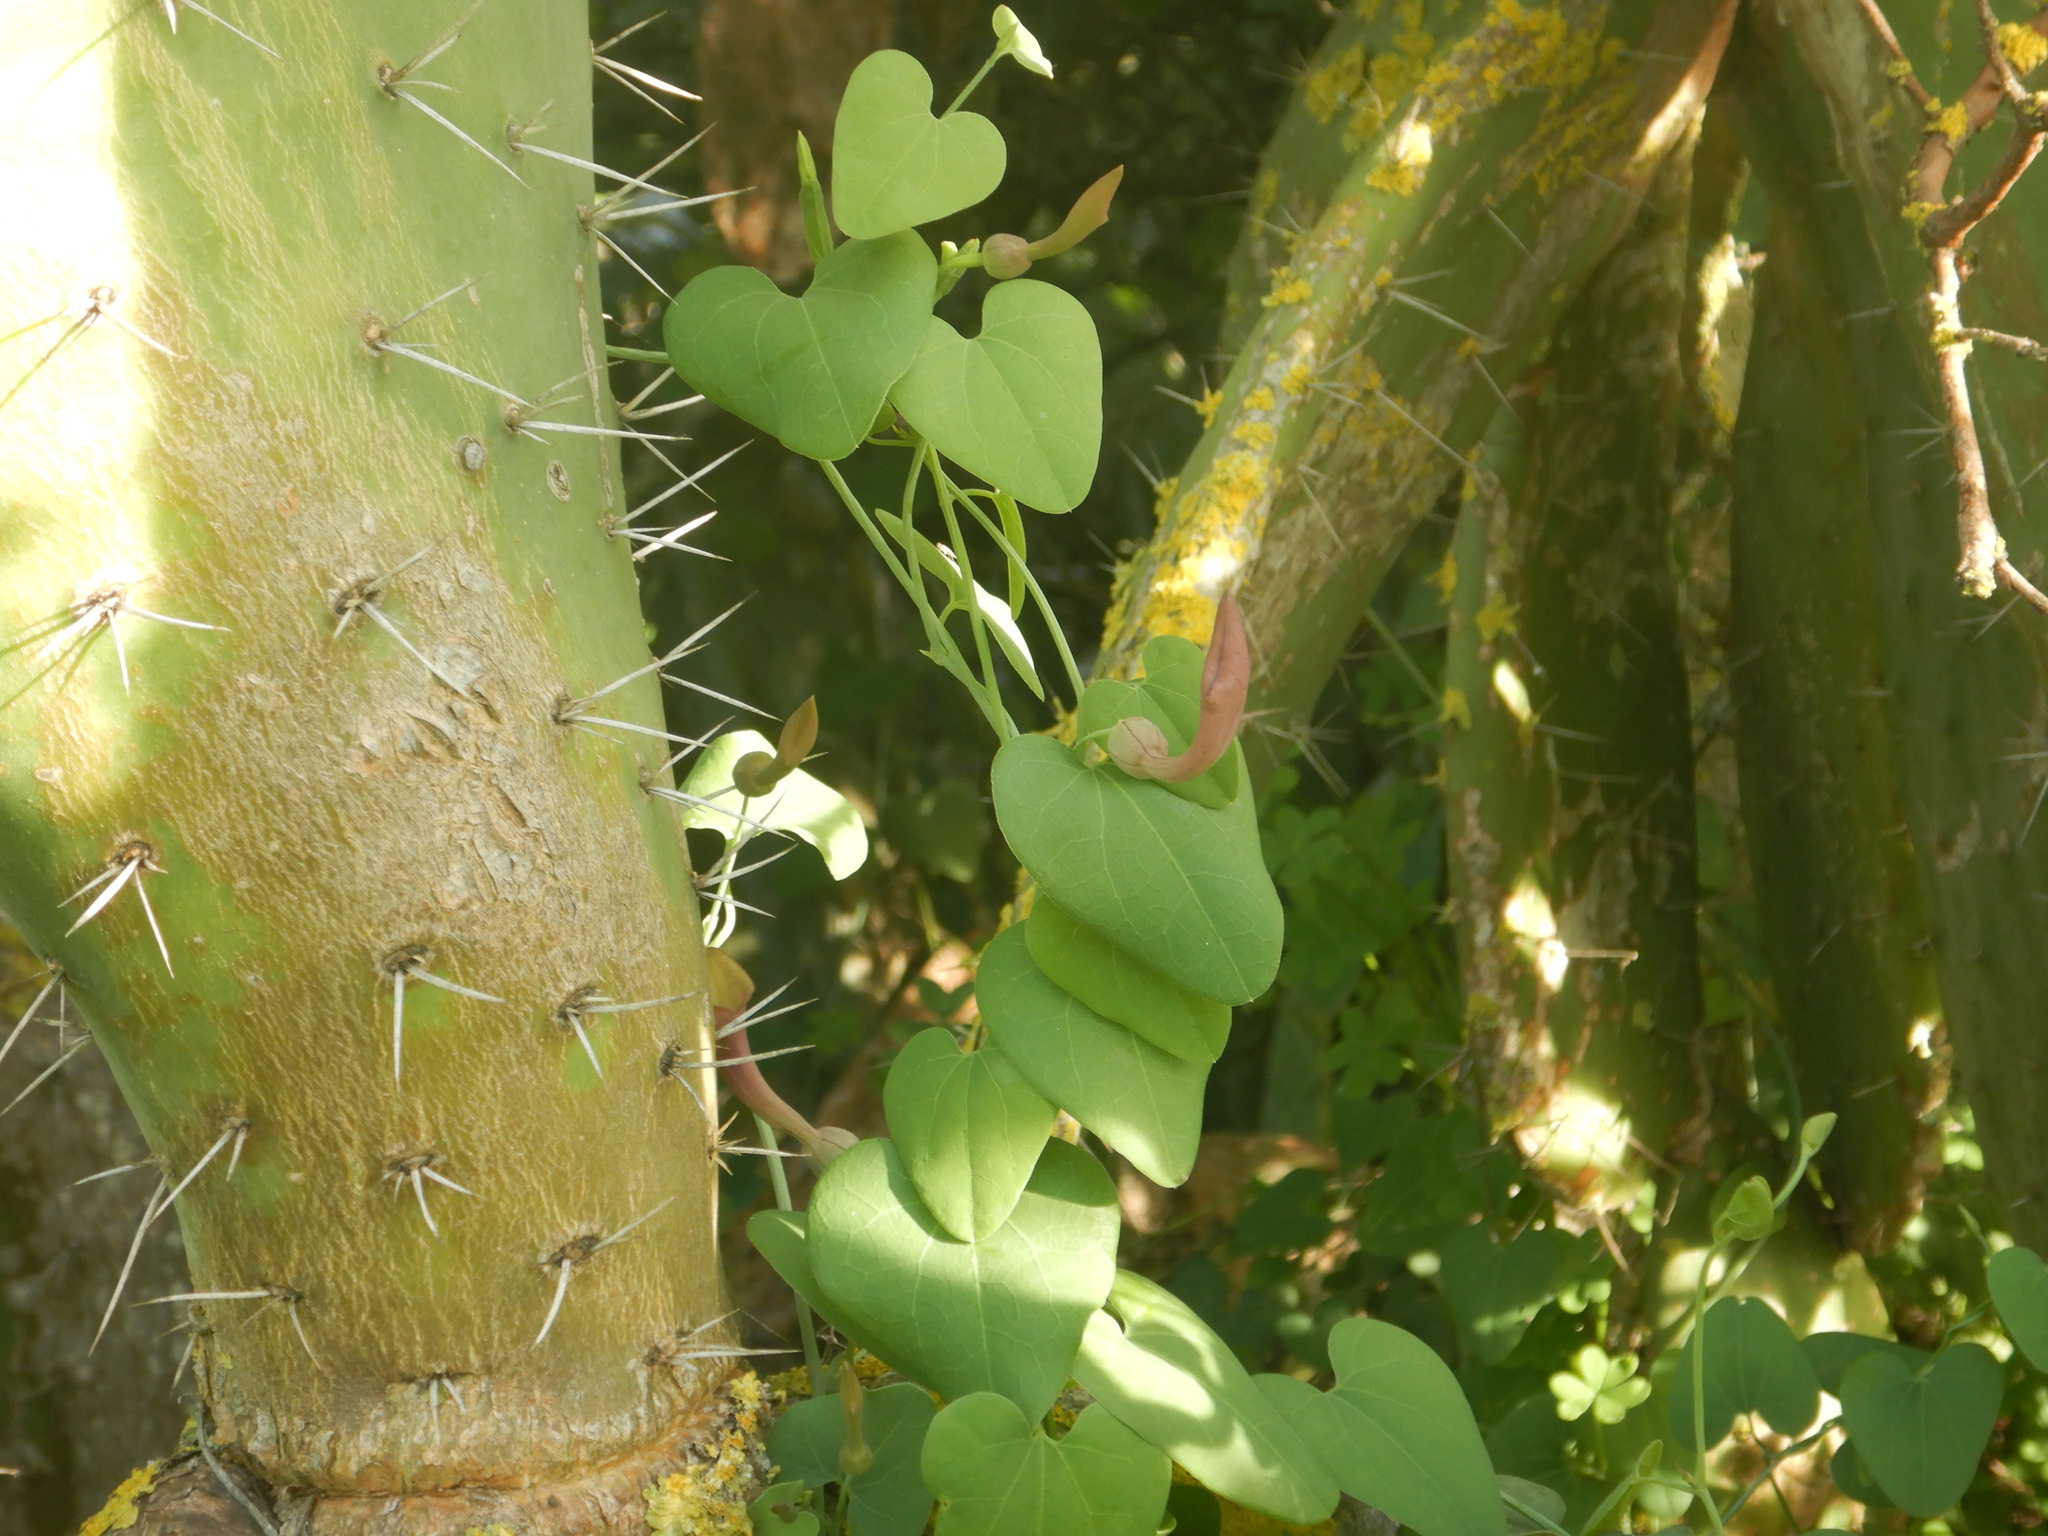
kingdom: Plantae
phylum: Tracheophyta
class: Magnoliopsida
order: Piperales
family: Aristolochiaceae
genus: Aristolochia
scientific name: Aristolochia baetica
